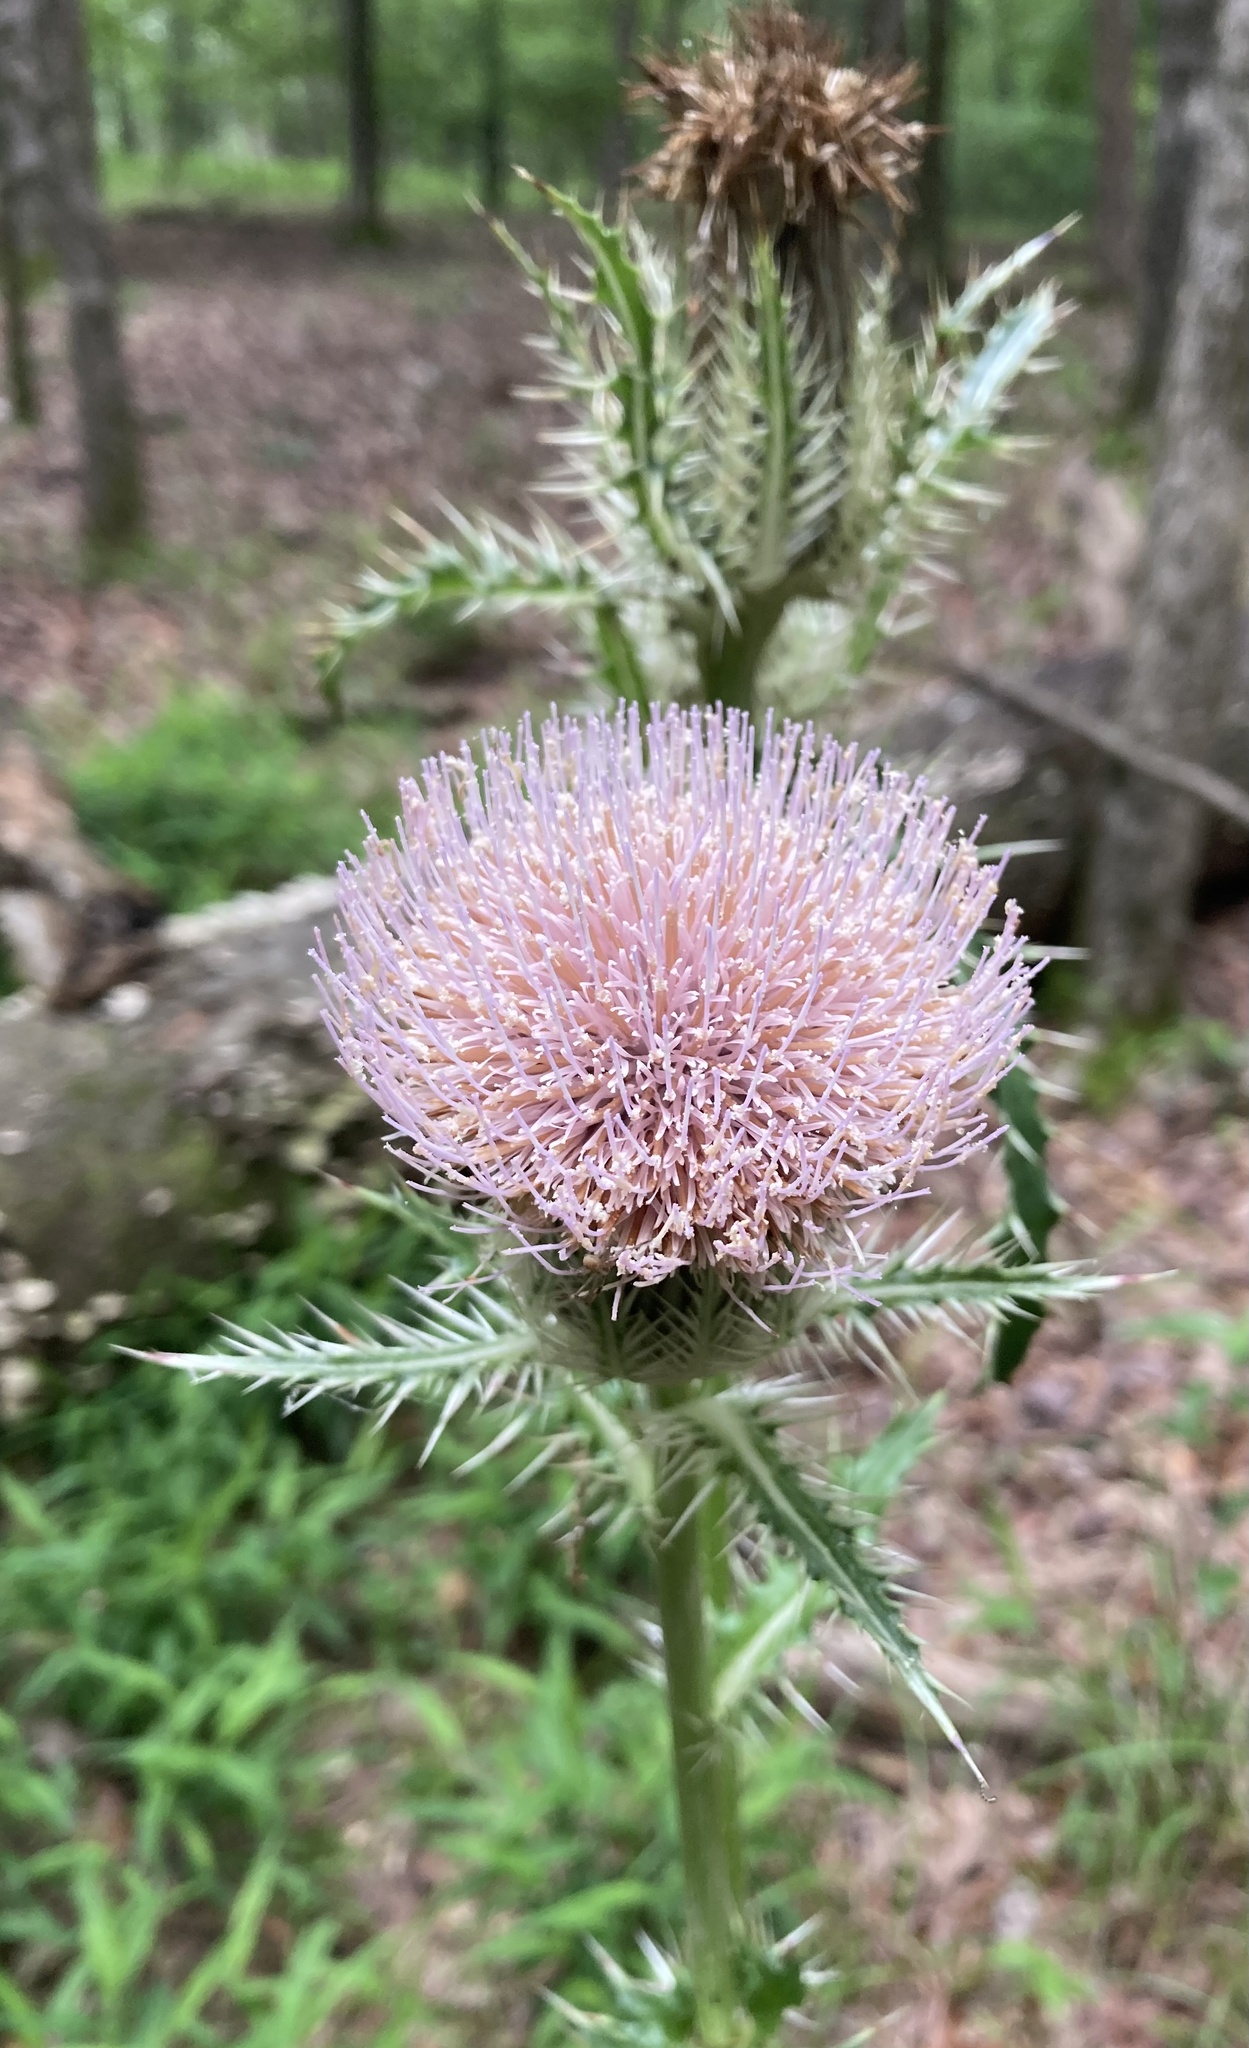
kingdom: Plantae
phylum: Tracheophyta
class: Magnoliopsida
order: Asterales
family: Asteraceae
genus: Cirsium
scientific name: Cirsium horridulum
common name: Bristly thistle
